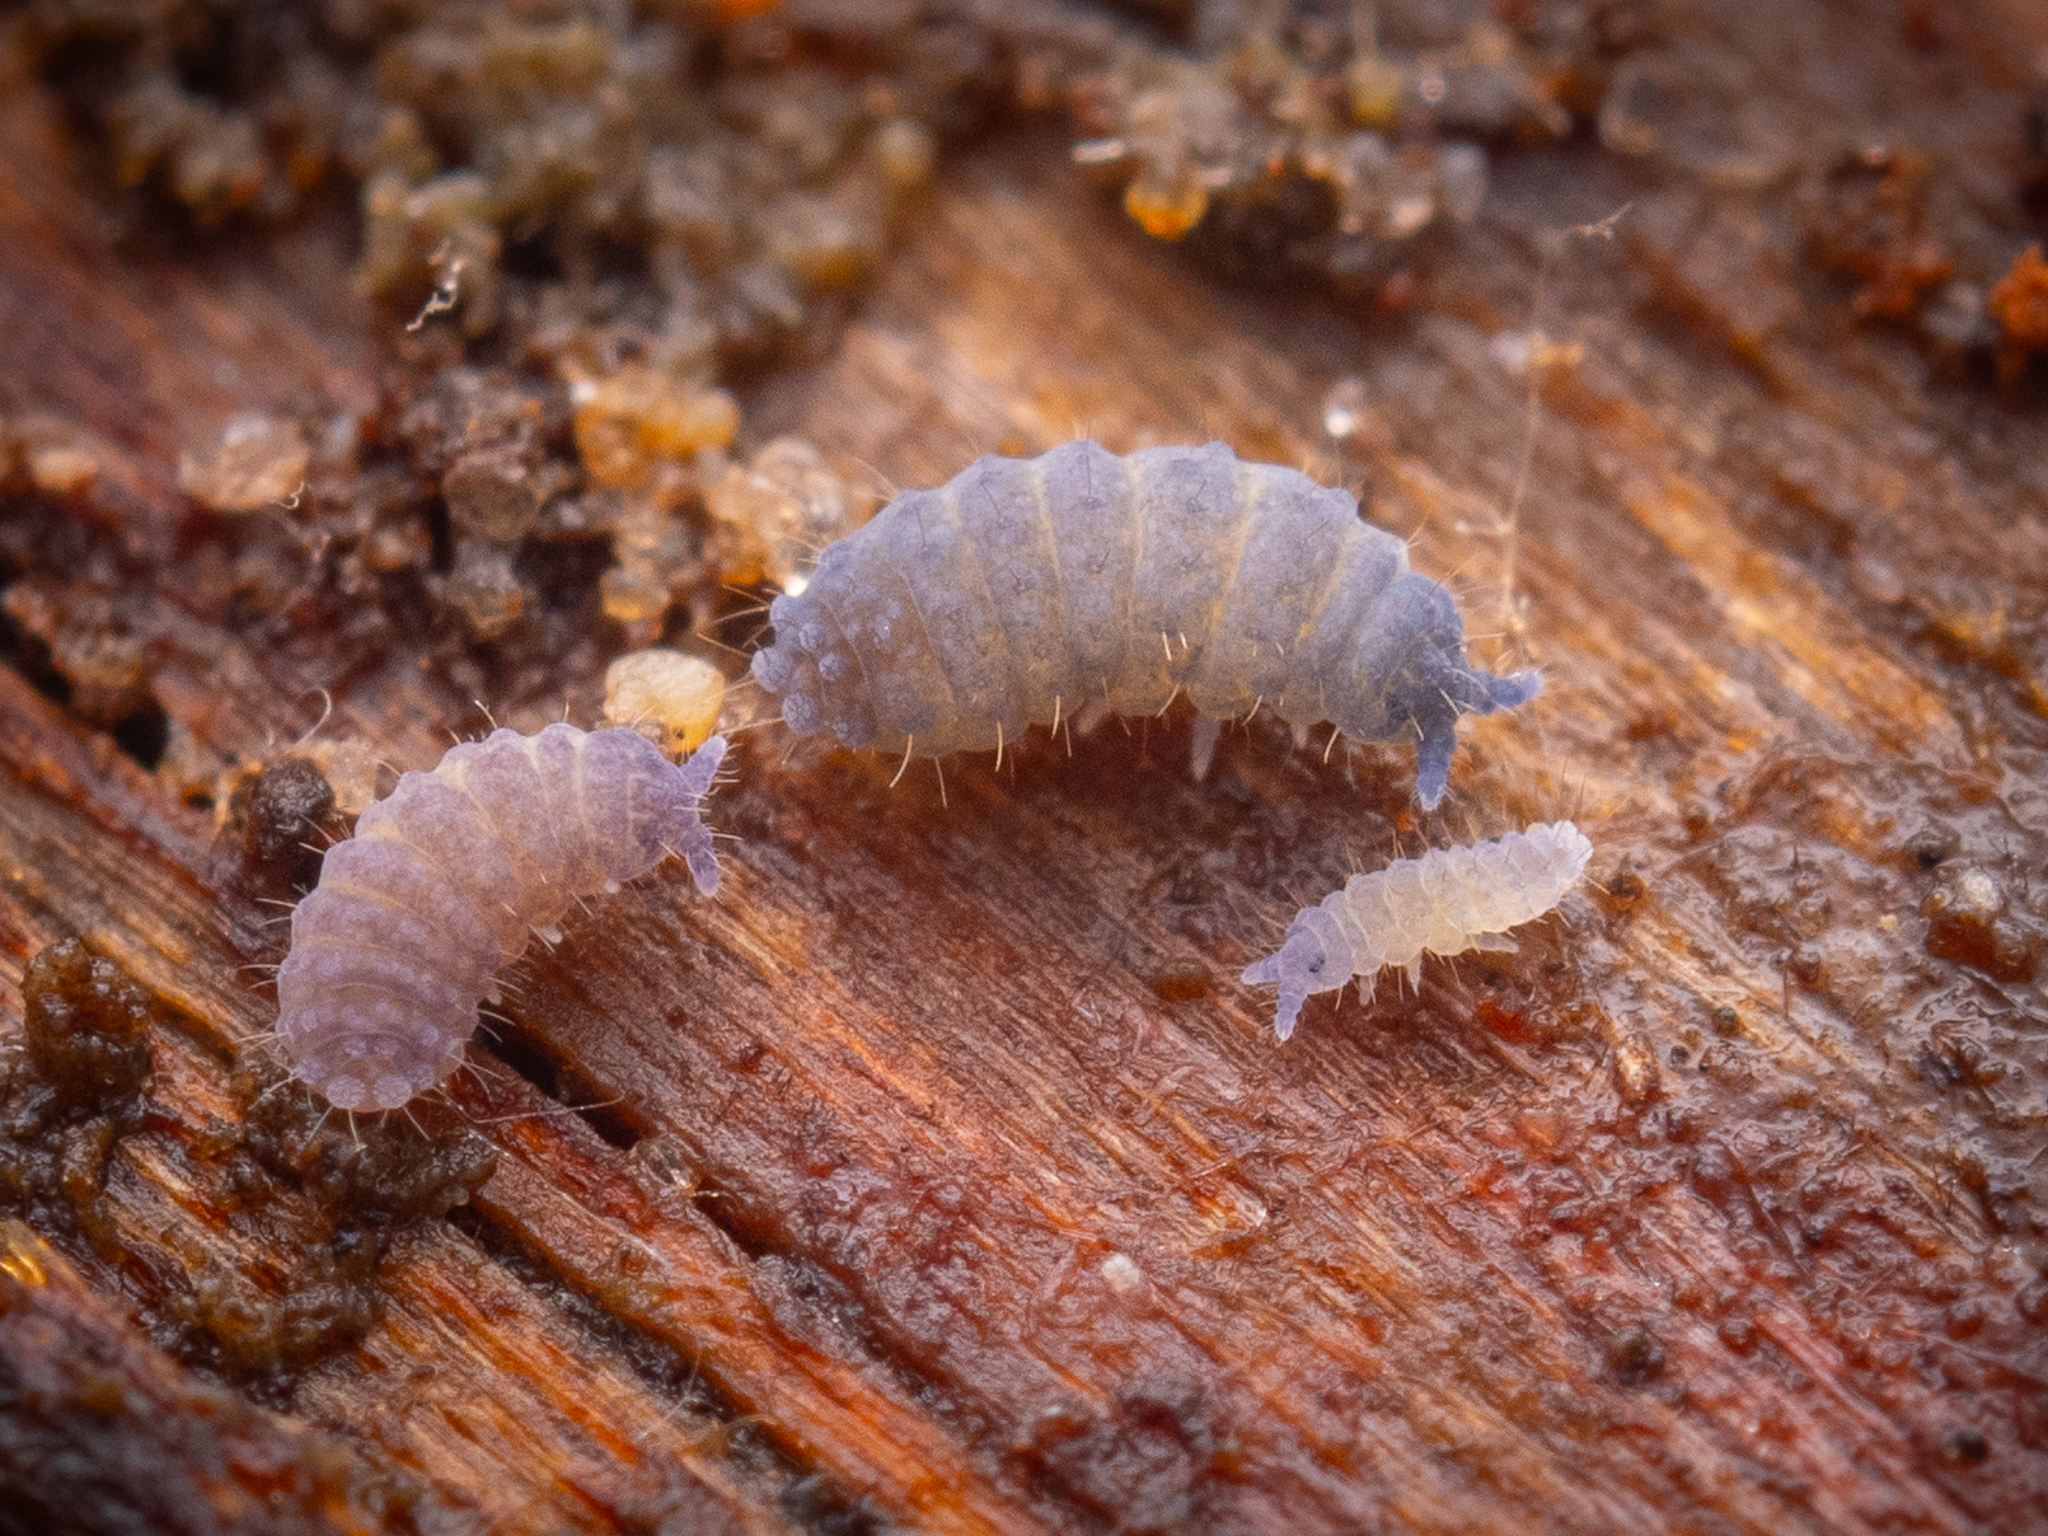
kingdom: Animalia
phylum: Arthropoda
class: Collembola
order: Poduromorpha
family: Neanuridae
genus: Neanura
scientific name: Neanura muscorum
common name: Springtail
